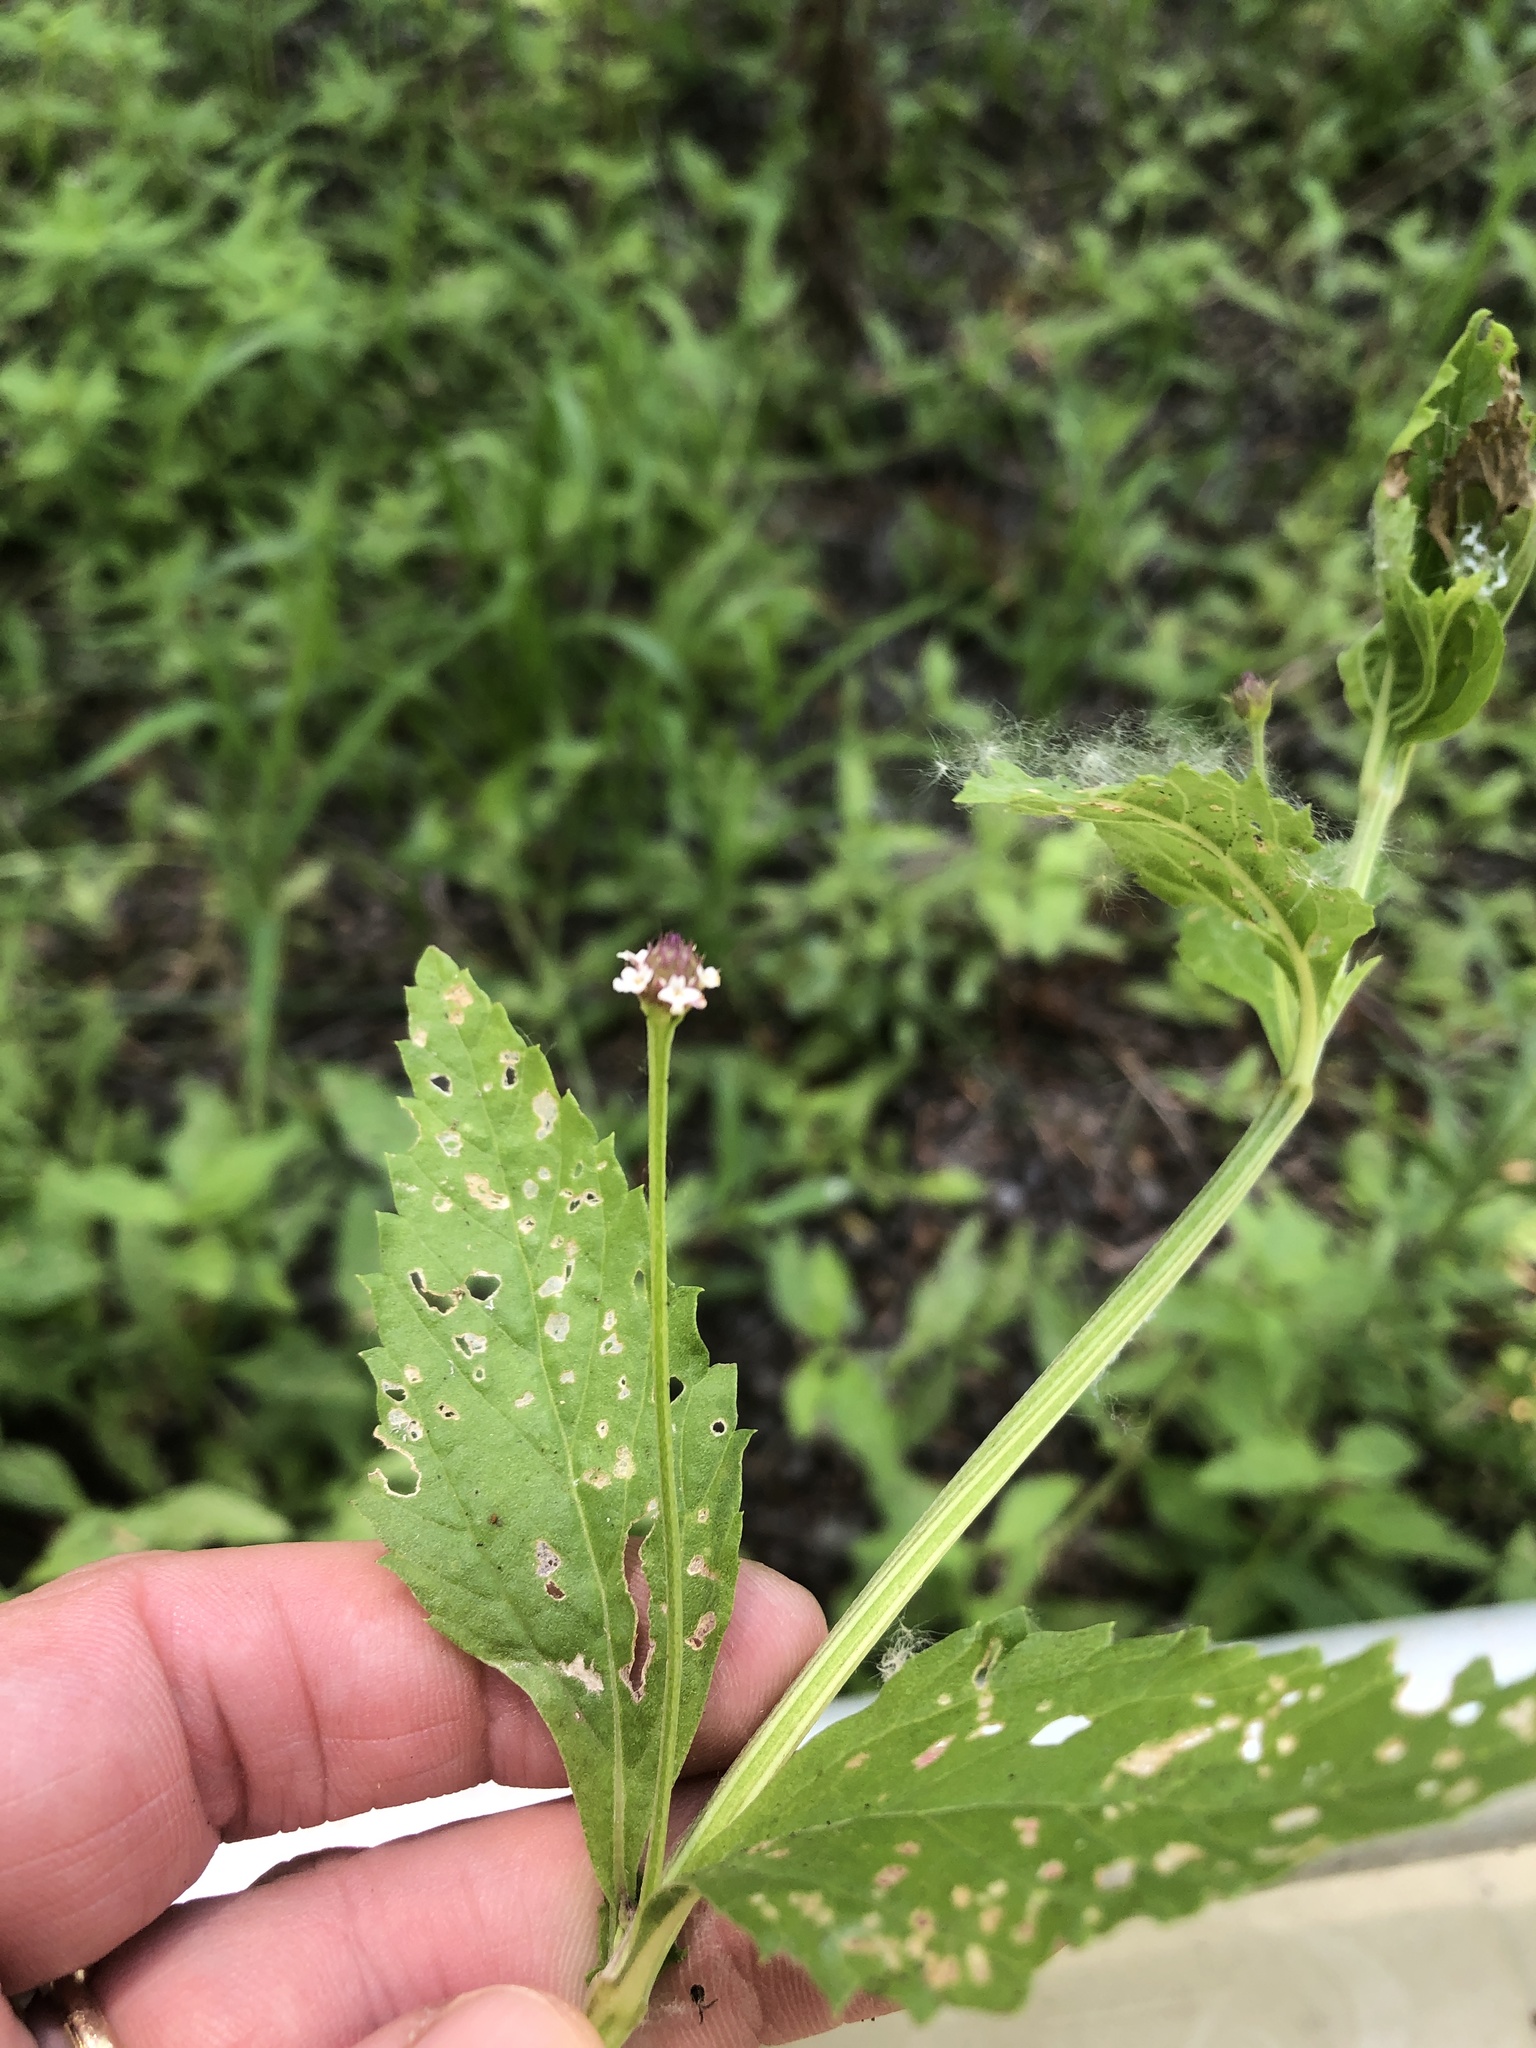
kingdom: Plantae
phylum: Tracheophyta
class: Magnoliopsida
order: Lamiales
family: Verbenaceae
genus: Phyla
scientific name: Phyla lanceolata
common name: Northern fogfruit
